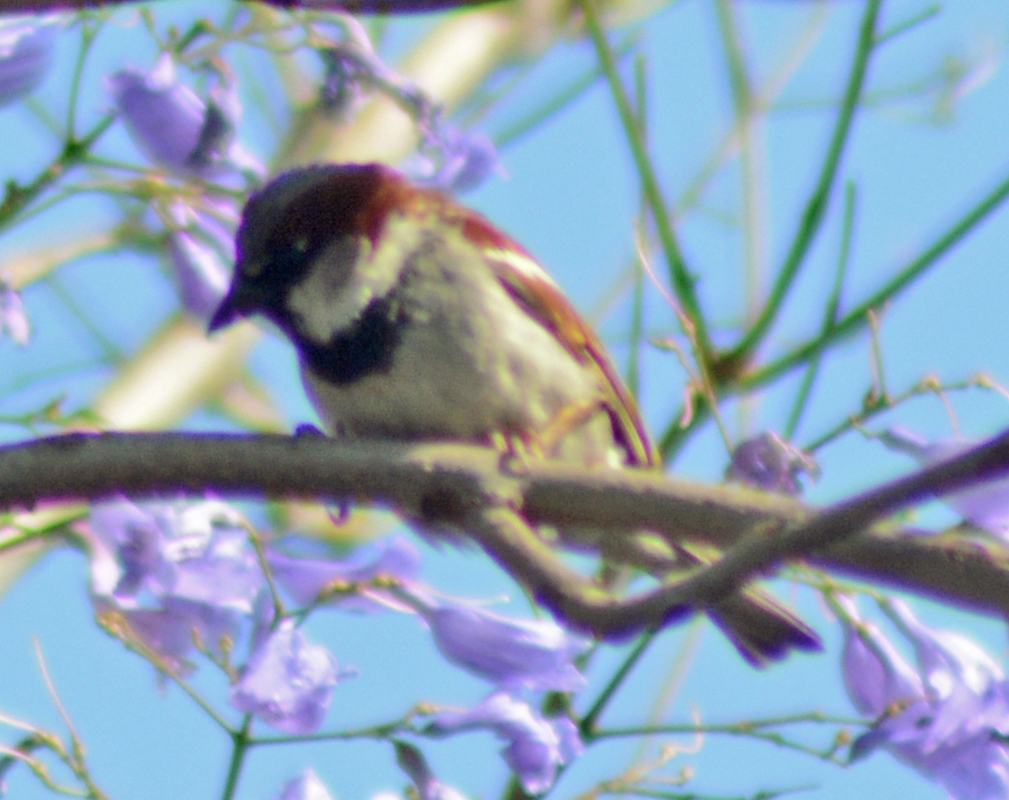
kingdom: Animalia
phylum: Chordata
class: Aves
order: Passeriformes
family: Passeridae
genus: Passer
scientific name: Passer domesticus
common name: House sparrow
